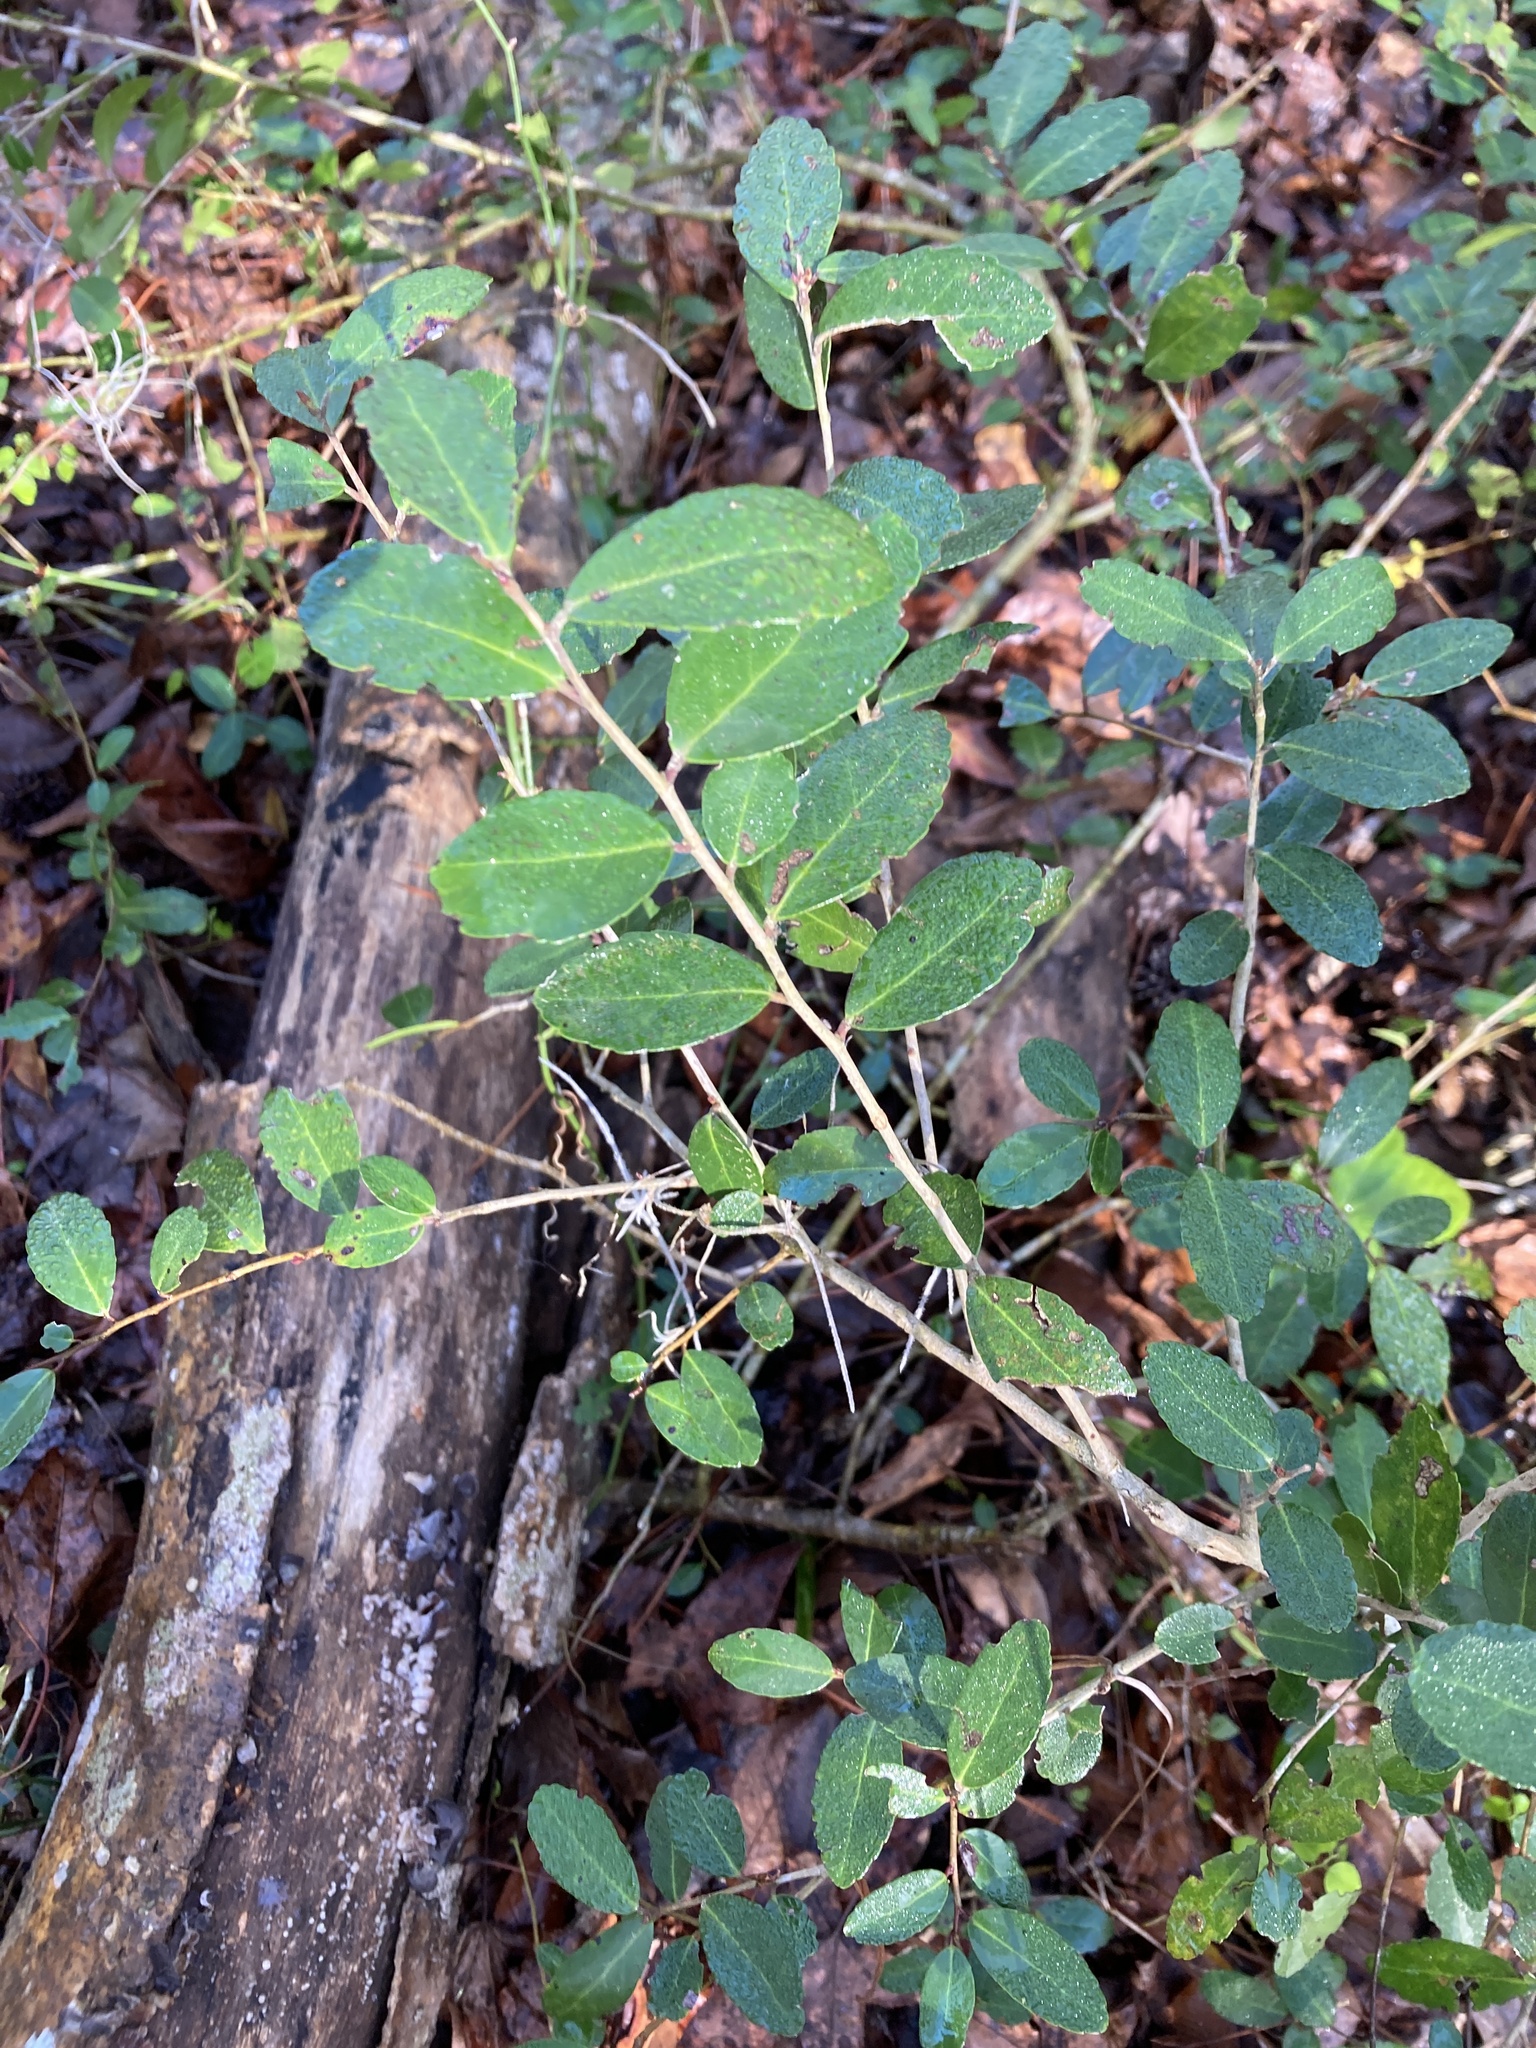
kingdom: Plantae
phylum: Tracheophyta
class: Magnoliopsida
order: Aquifoliales
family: Aquifoliaceae
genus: Ilex
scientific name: Ilex vomitoria
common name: Yaupon holly
